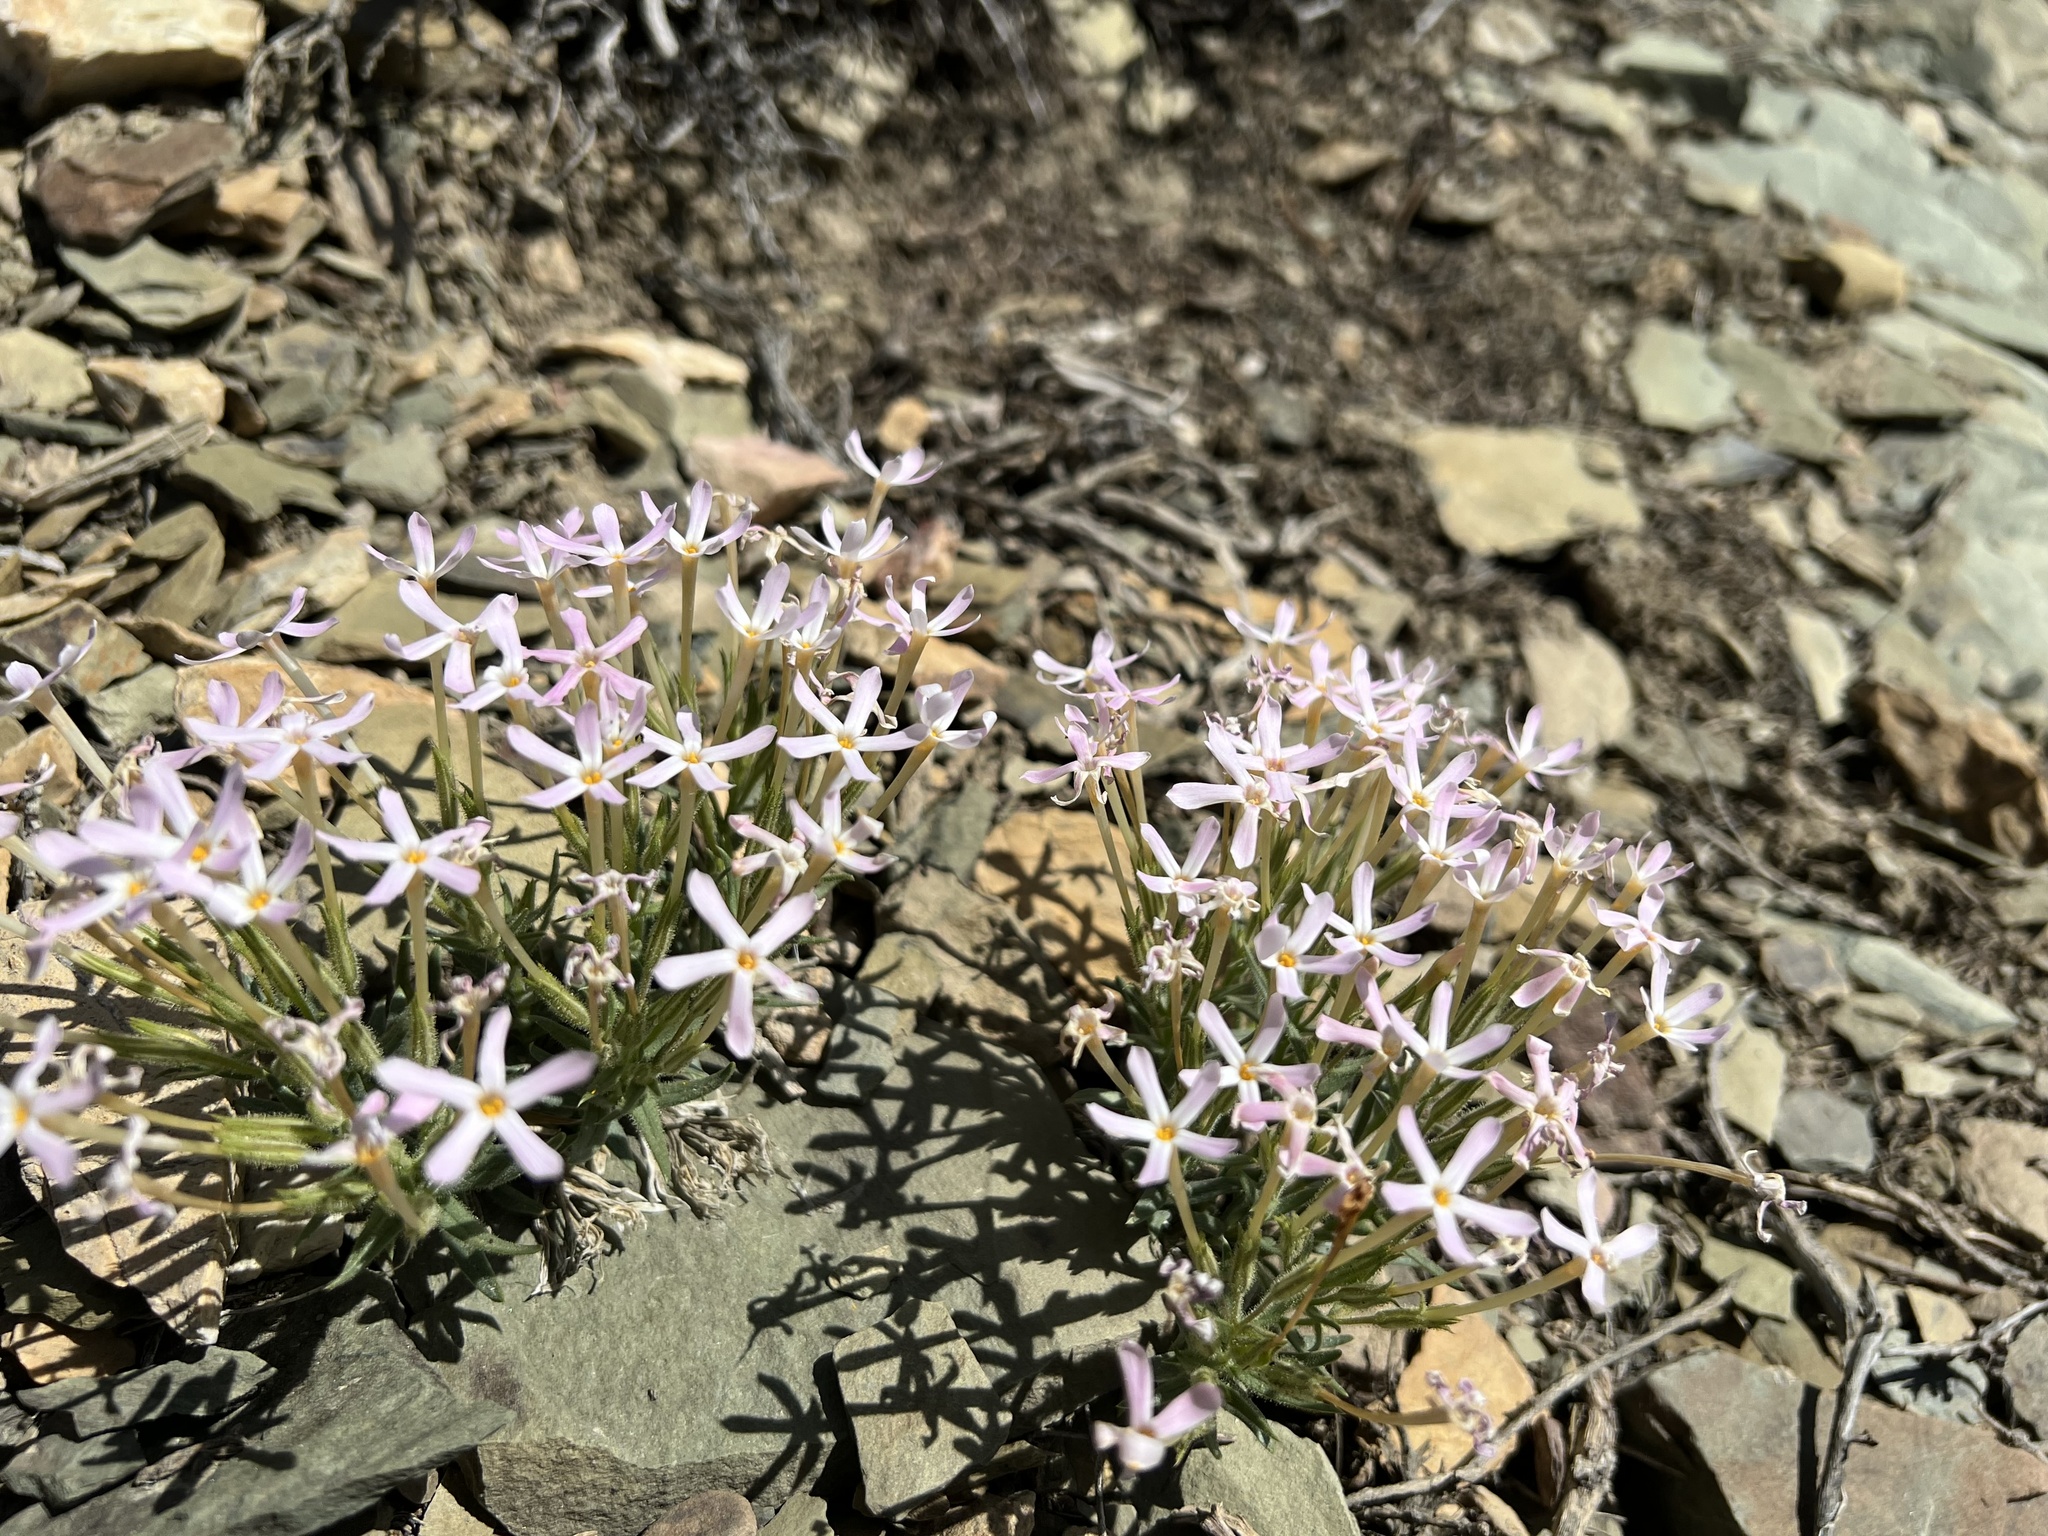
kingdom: Plantae
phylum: Tracheophyta
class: Magnoliopsida
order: Ericales
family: Polemoniaceae
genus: Phlox
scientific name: Phlox longifolia
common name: Longleaf phlox
